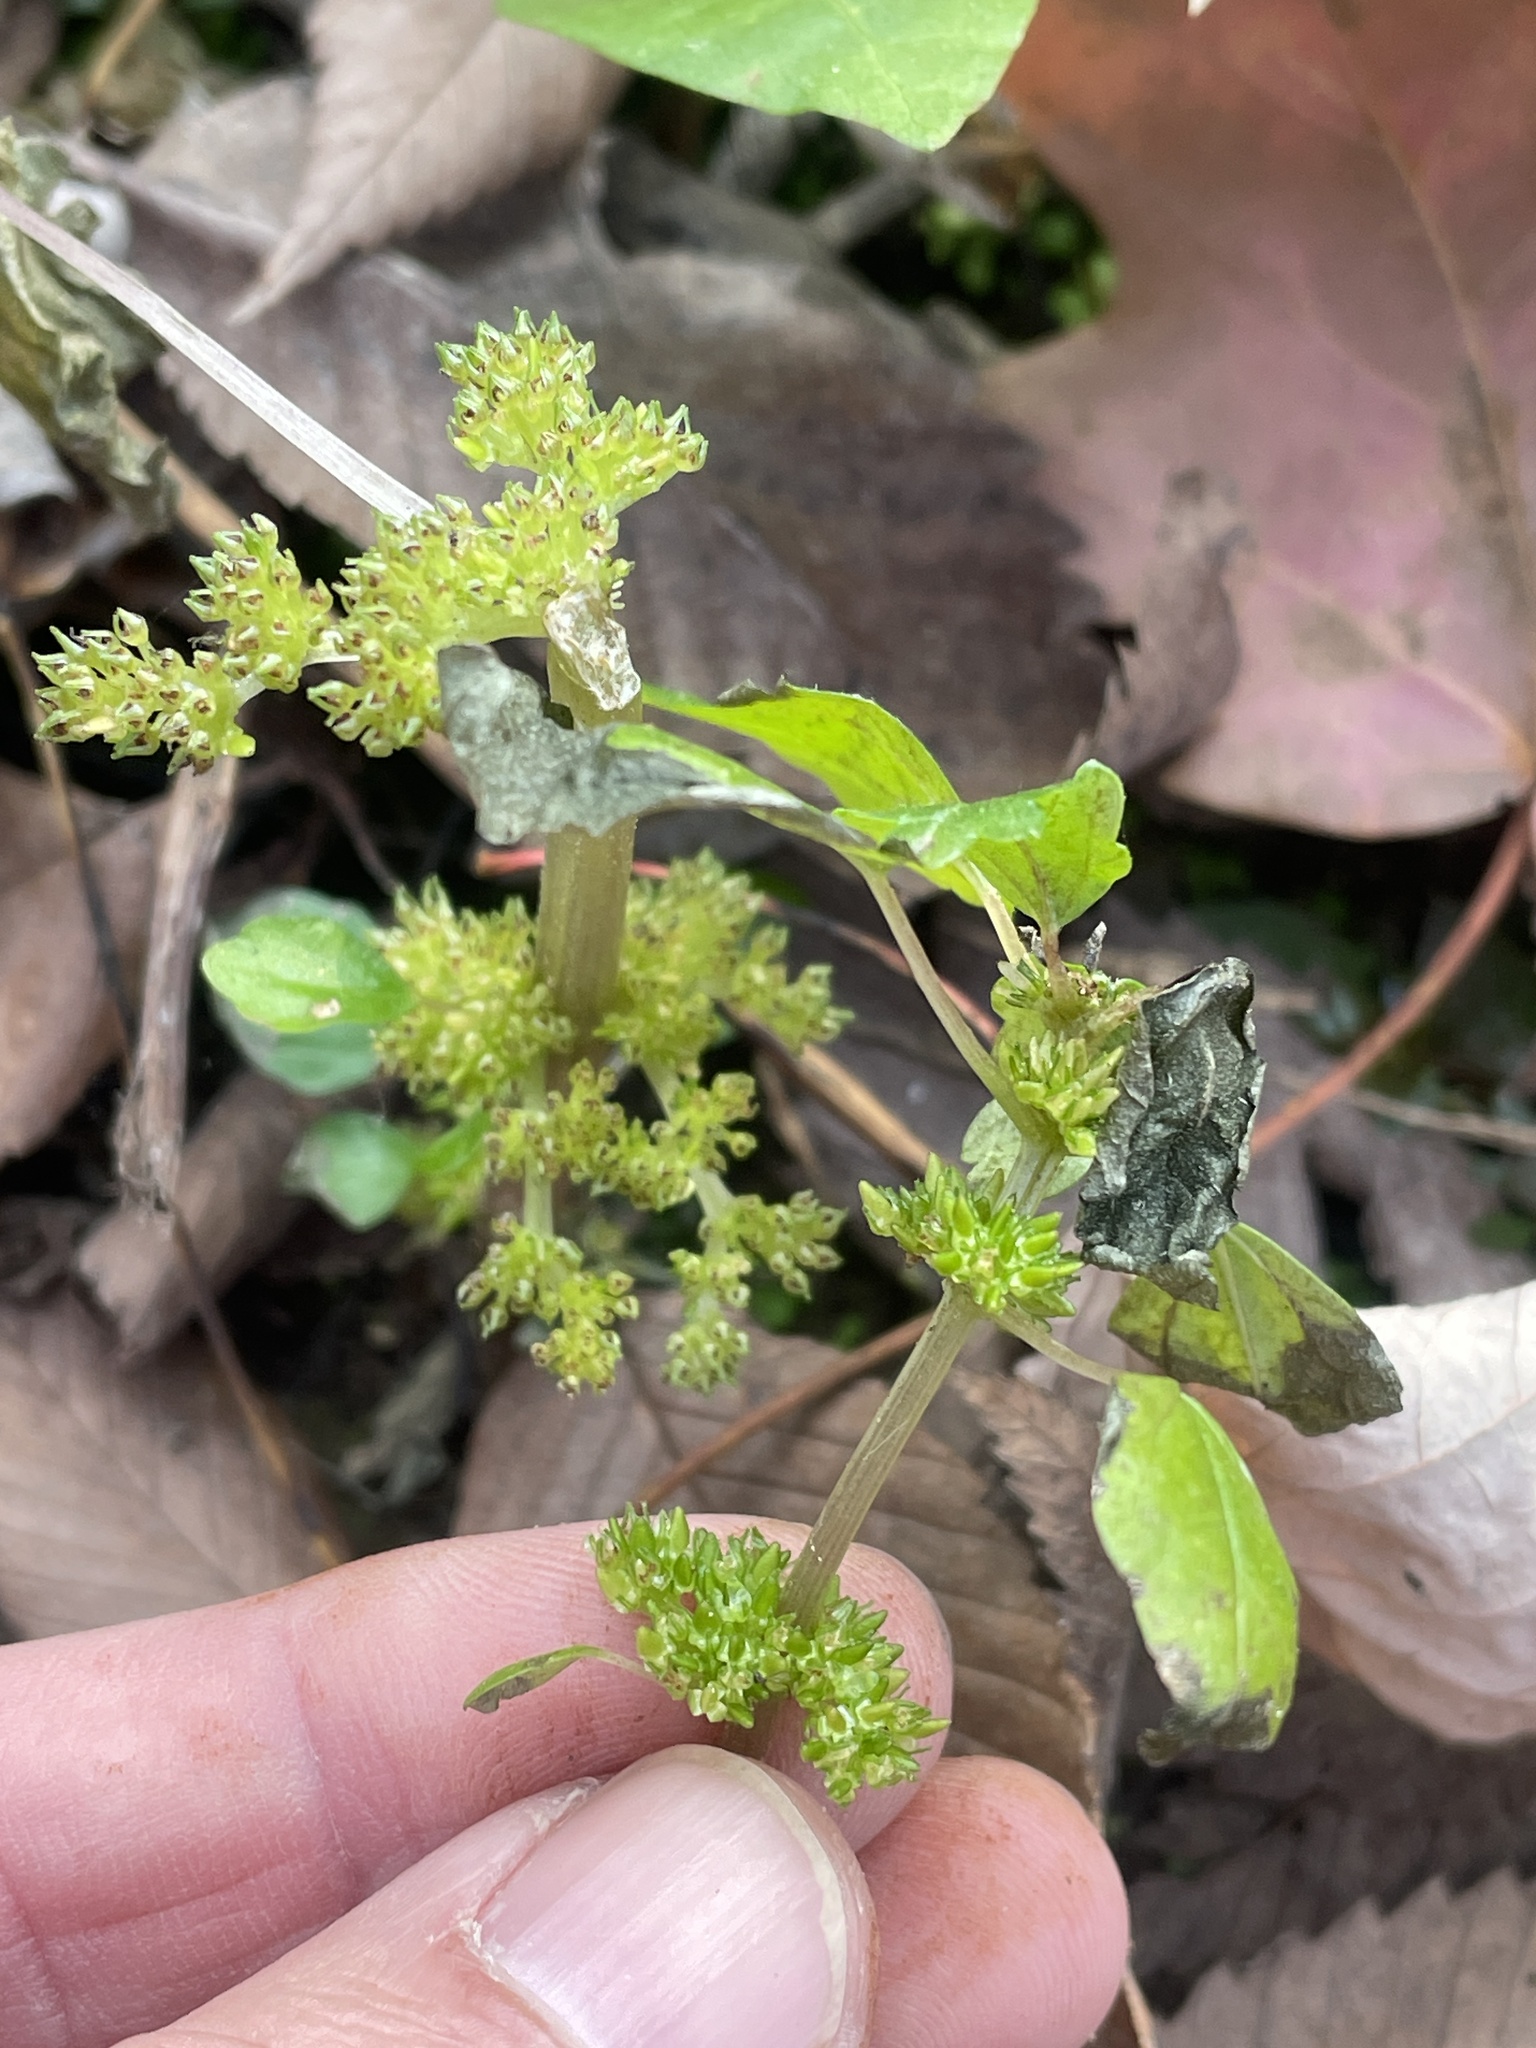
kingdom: Plantae
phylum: Tracheophyta
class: Magnoliopsida
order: Rosales
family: Urticaceae
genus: Pilea
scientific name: Pilea pumila
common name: Clearweed
